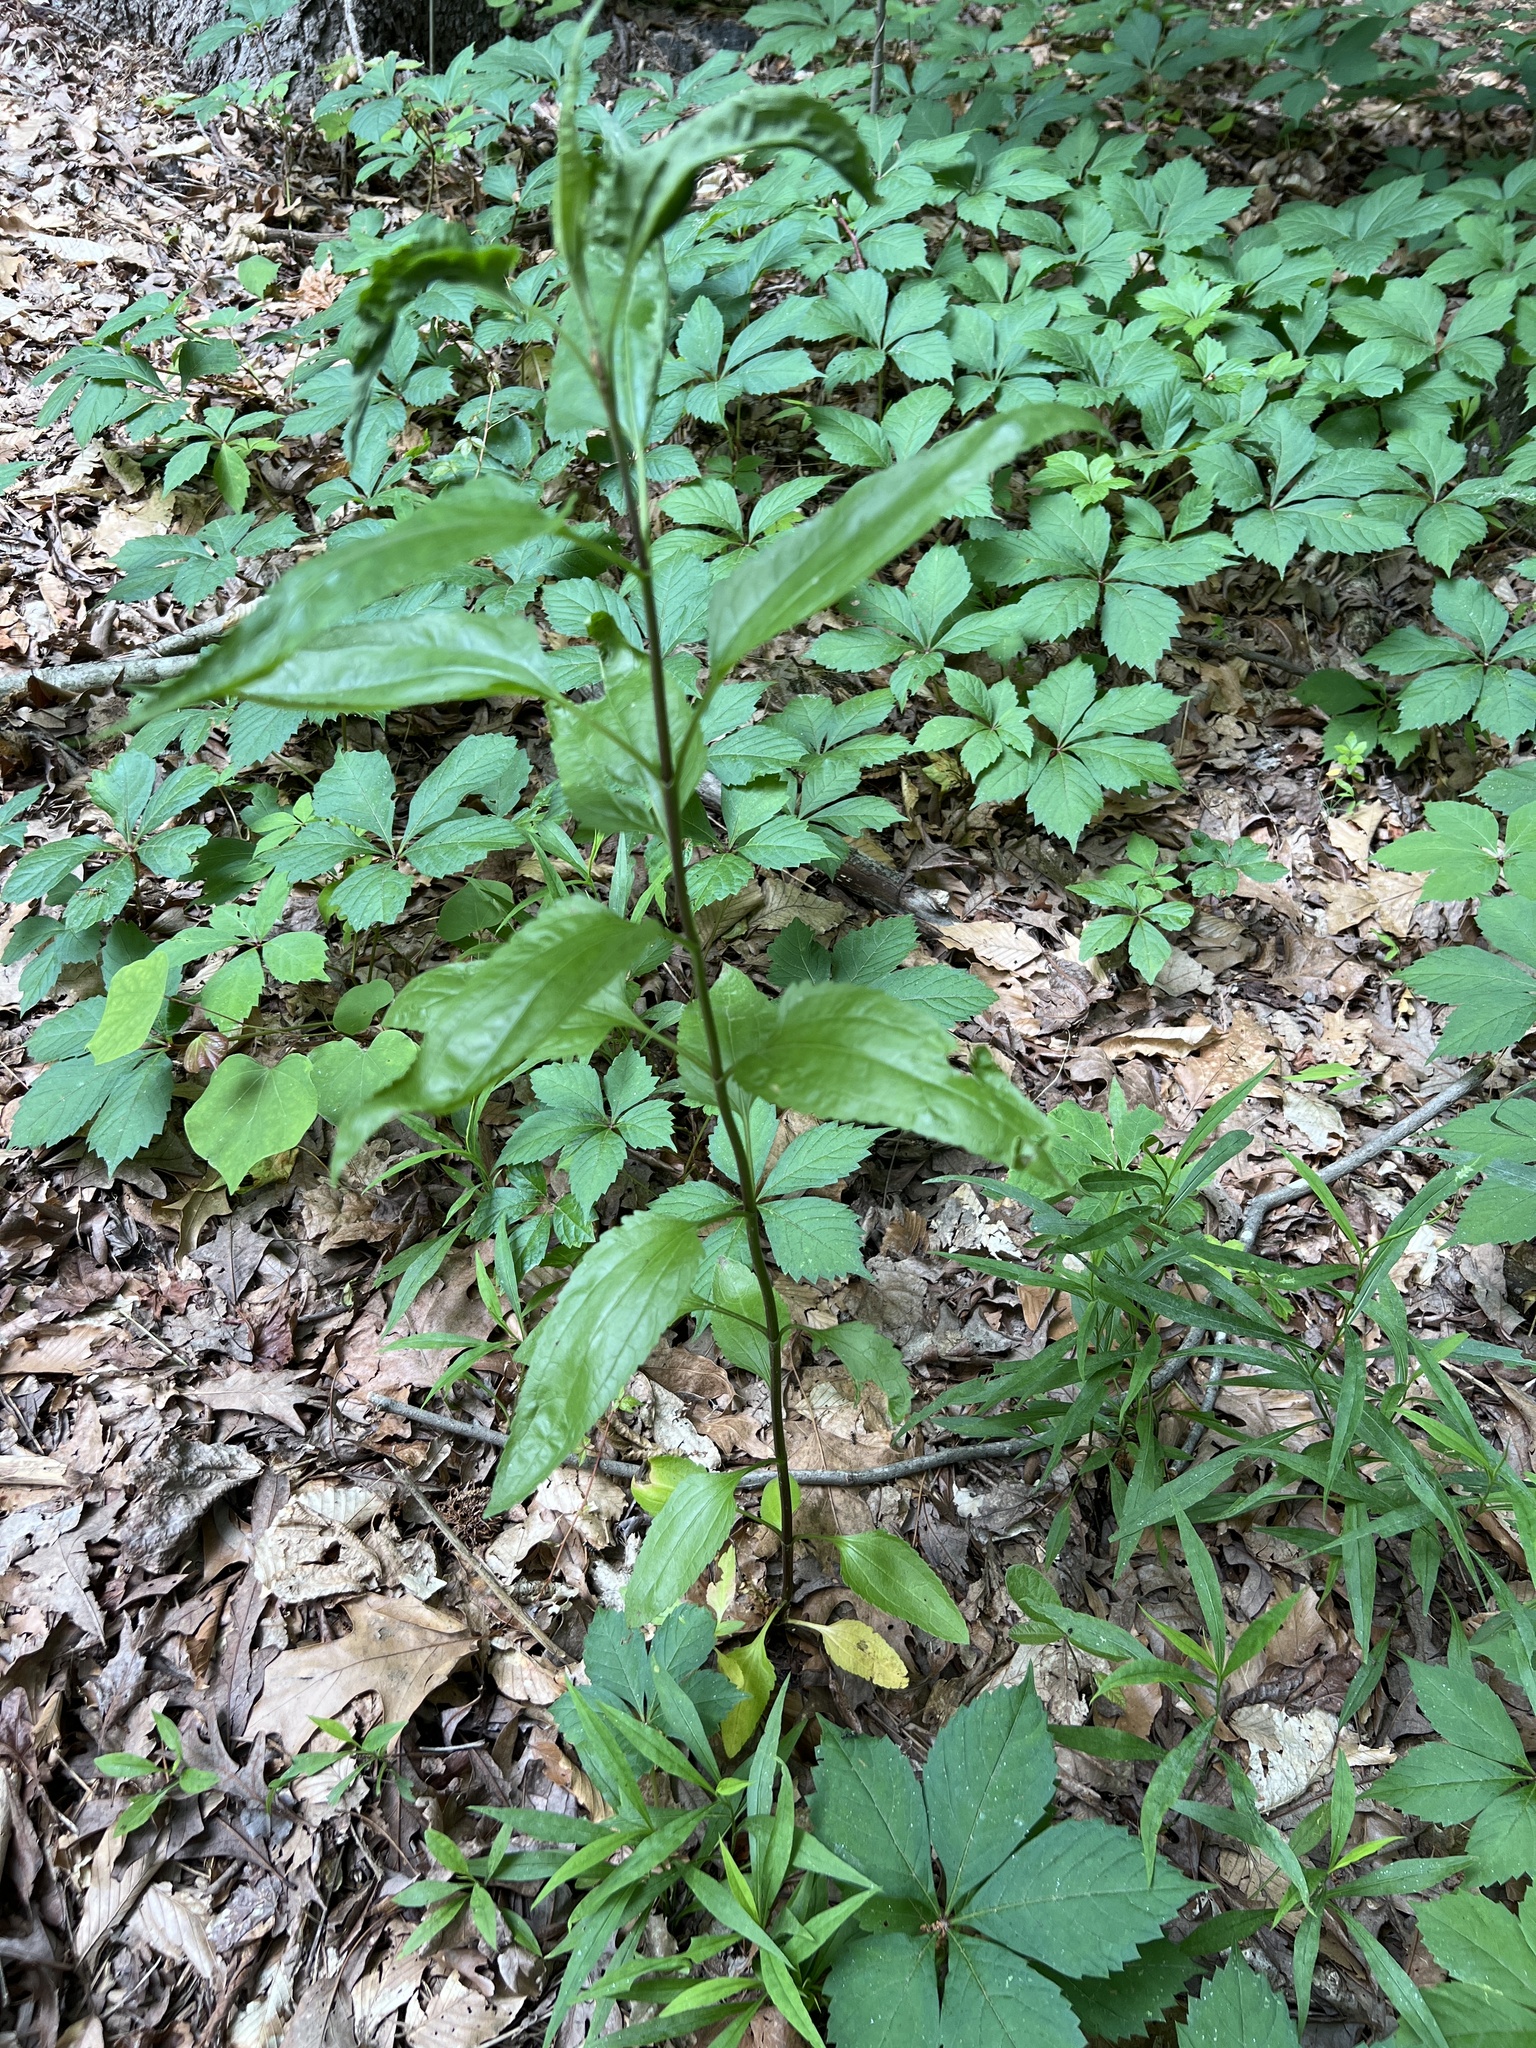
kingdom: Plantae
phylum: Tracheophyta
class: Magnoliopsida
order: Asterales
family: Asteraceae
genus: Eupatorium
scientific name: Eupatorium serotinum
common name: Late boneset
